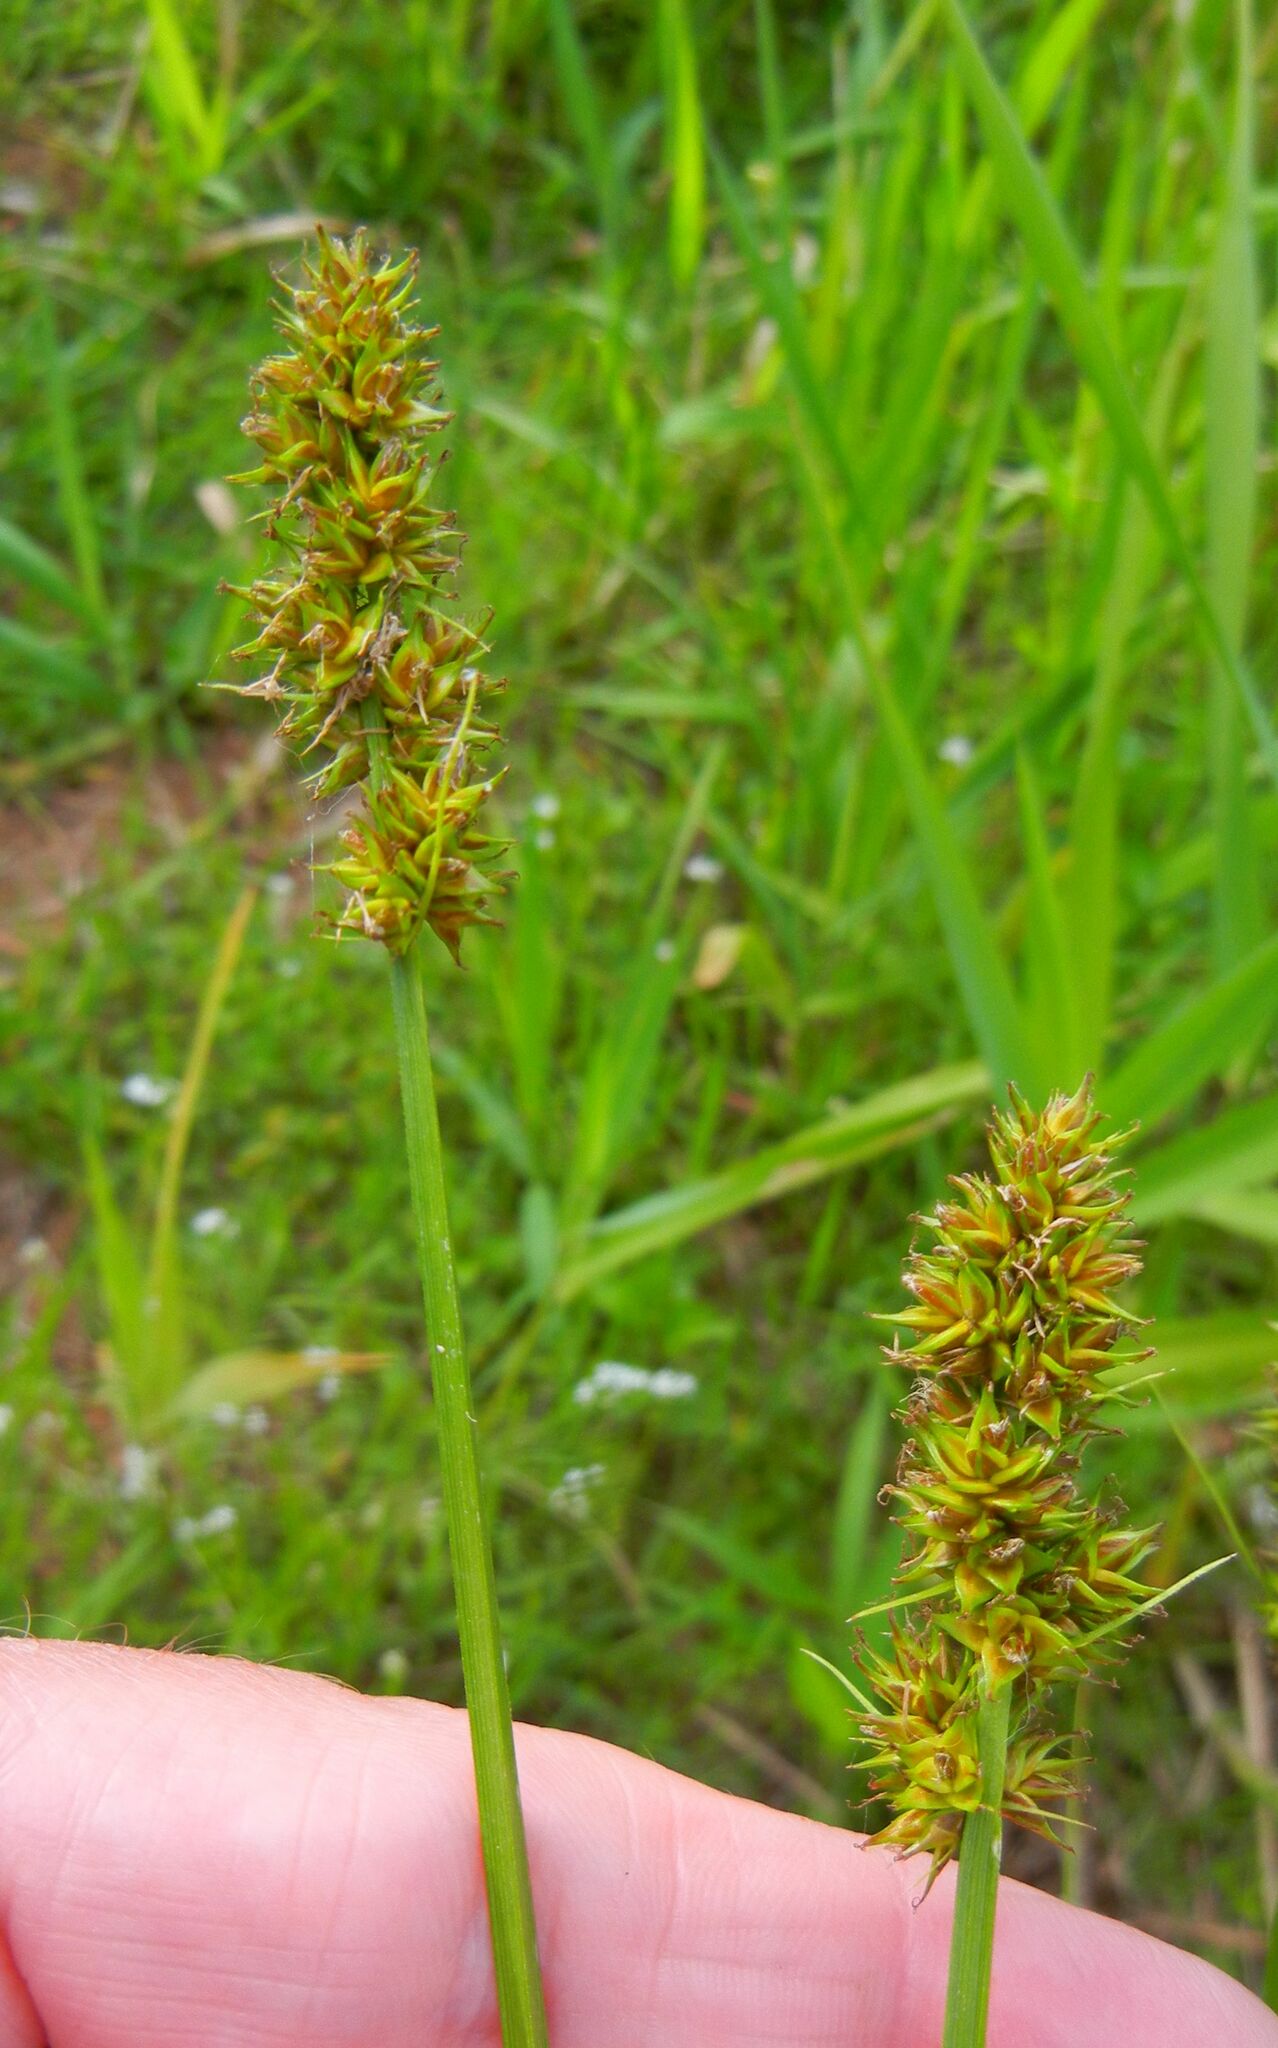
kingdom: Plantae
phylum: Tracheophyta
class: Liliopsida
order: Poales
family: Cyperaceae
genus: Carex
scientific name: Carex otrubae
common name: False fox-sedge
